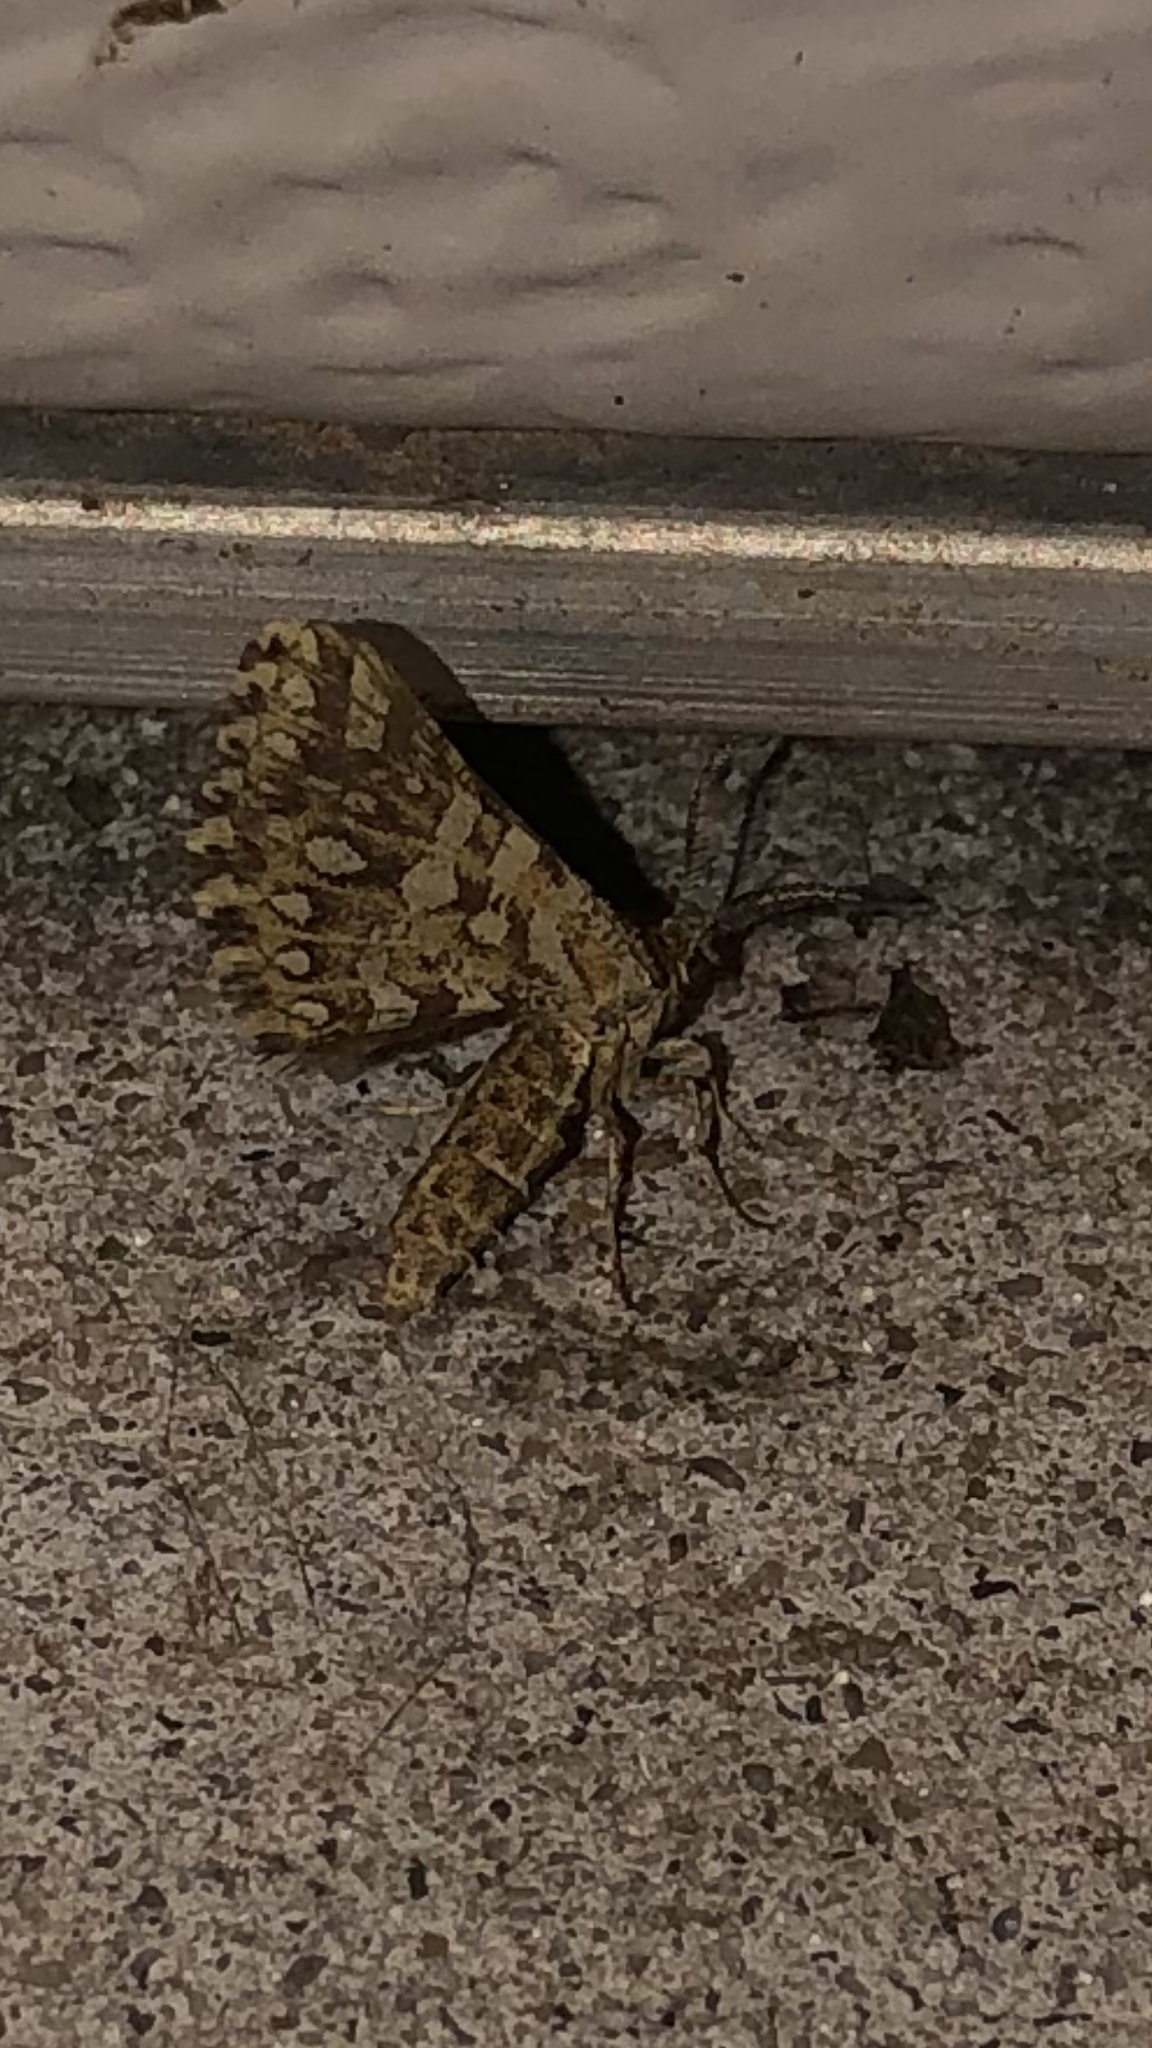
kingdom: Animalia
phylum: Arthropoda
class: Insecta
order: Lepidoptera
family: Geometridae
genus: Narraga
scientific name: Narraga fimetaria
